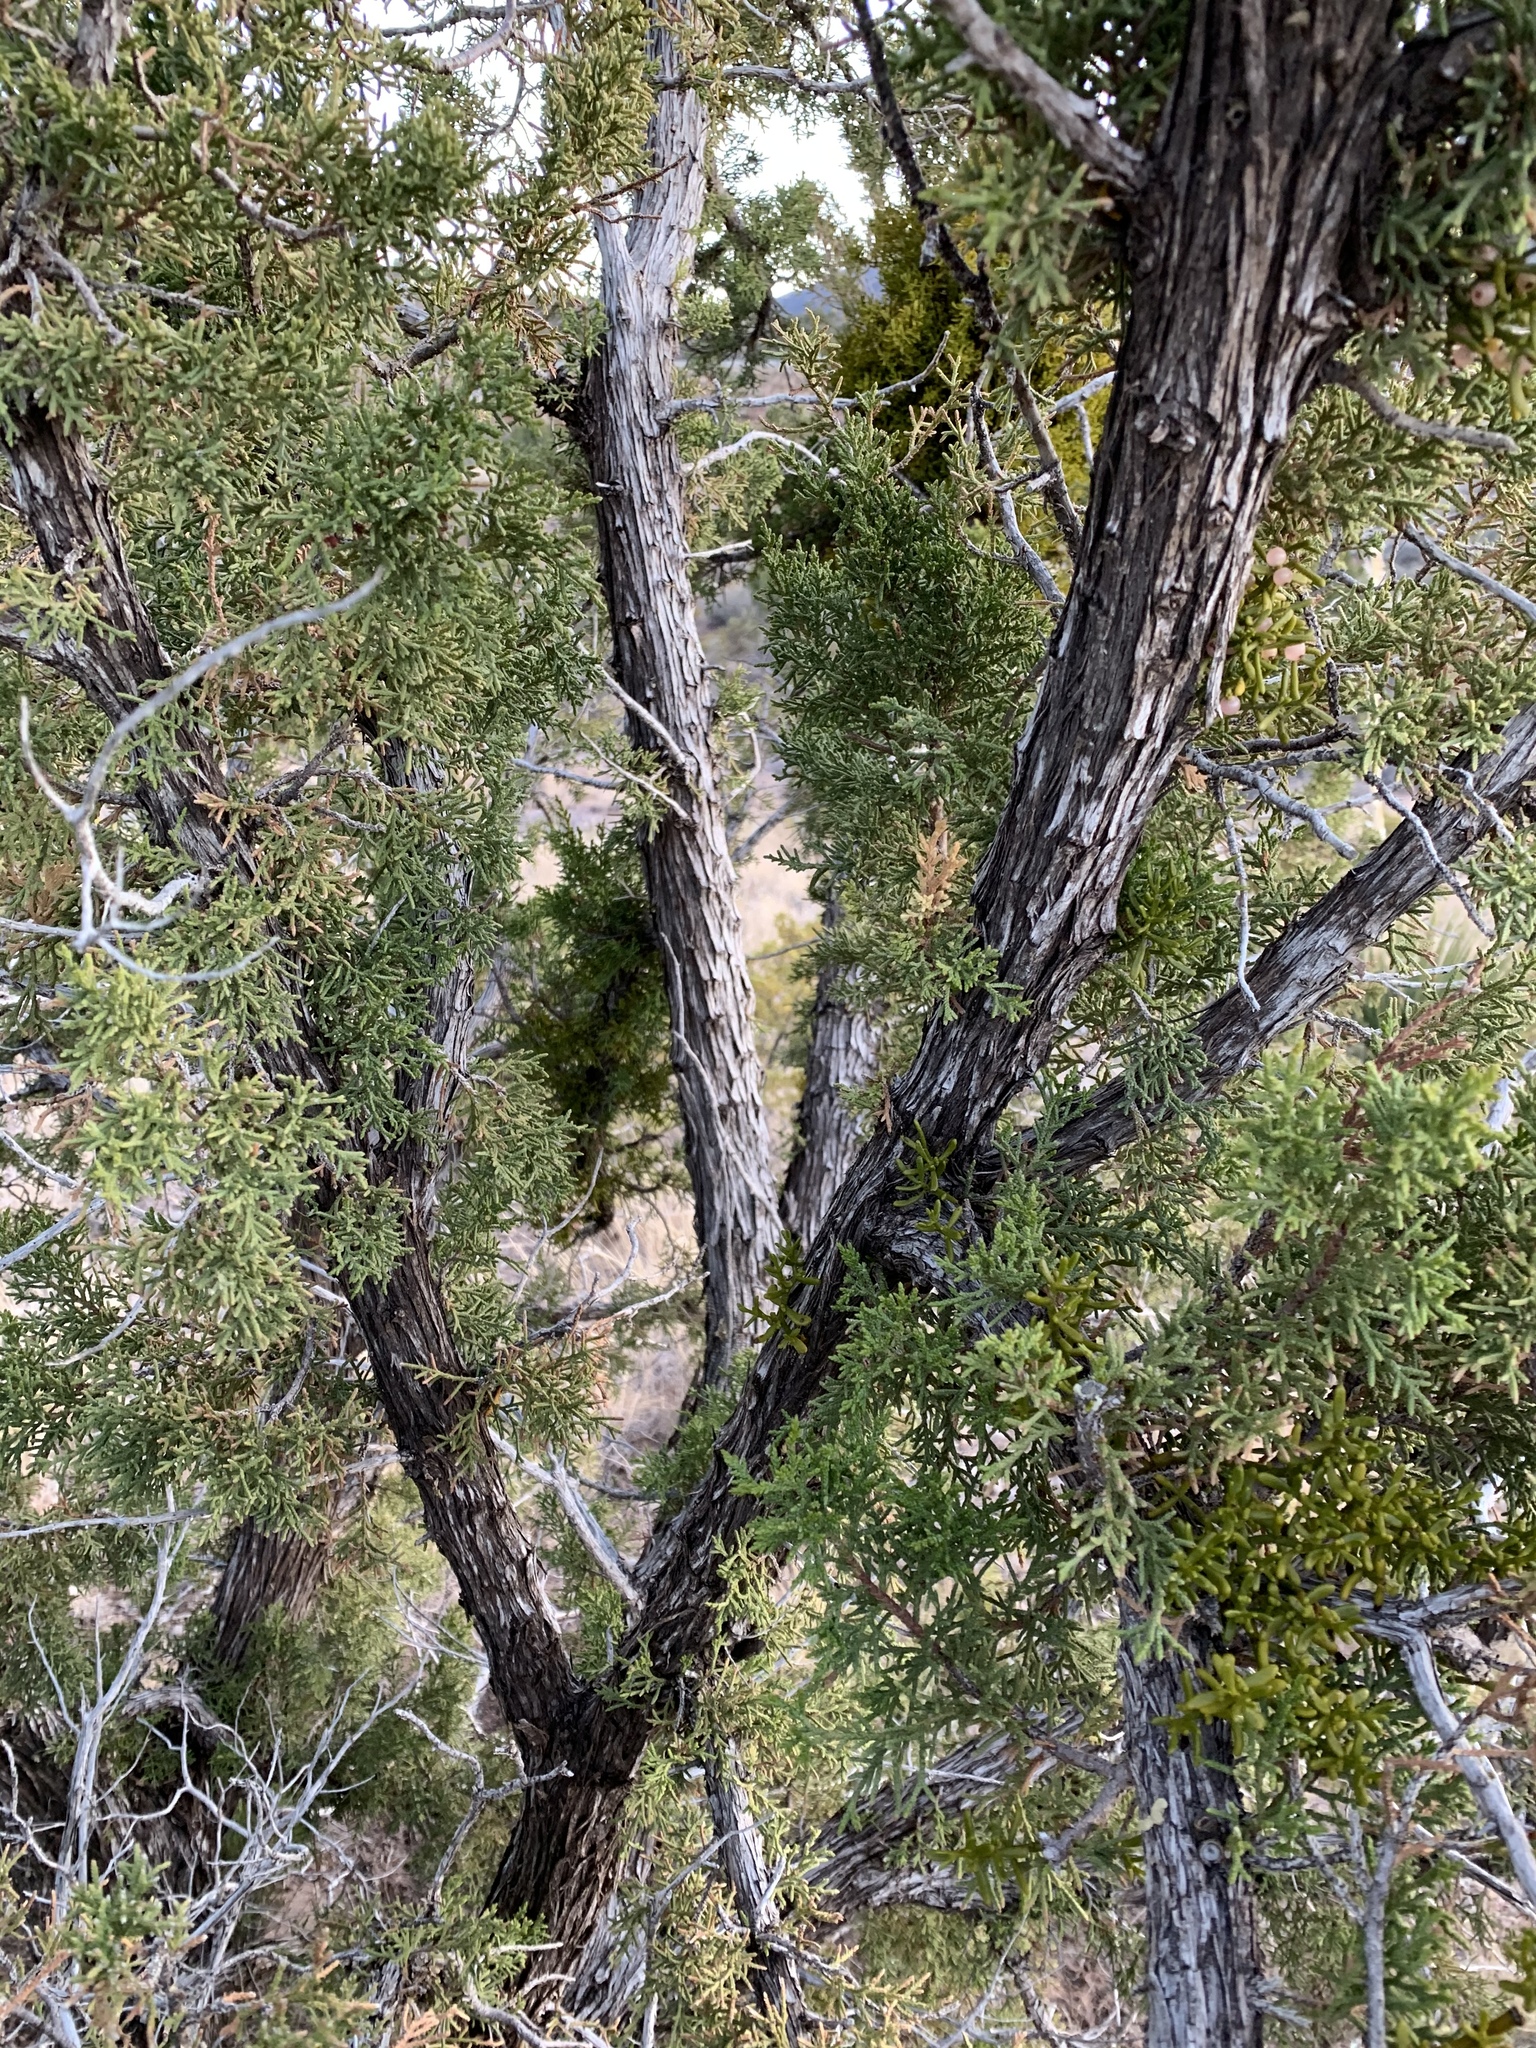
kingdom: Plantae
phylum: Tracheophyta
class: Pinopsida
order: Pinales
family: Cupressaceae
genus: Juniperus
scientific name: Juniperus monosperma
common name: One-seed juniper
